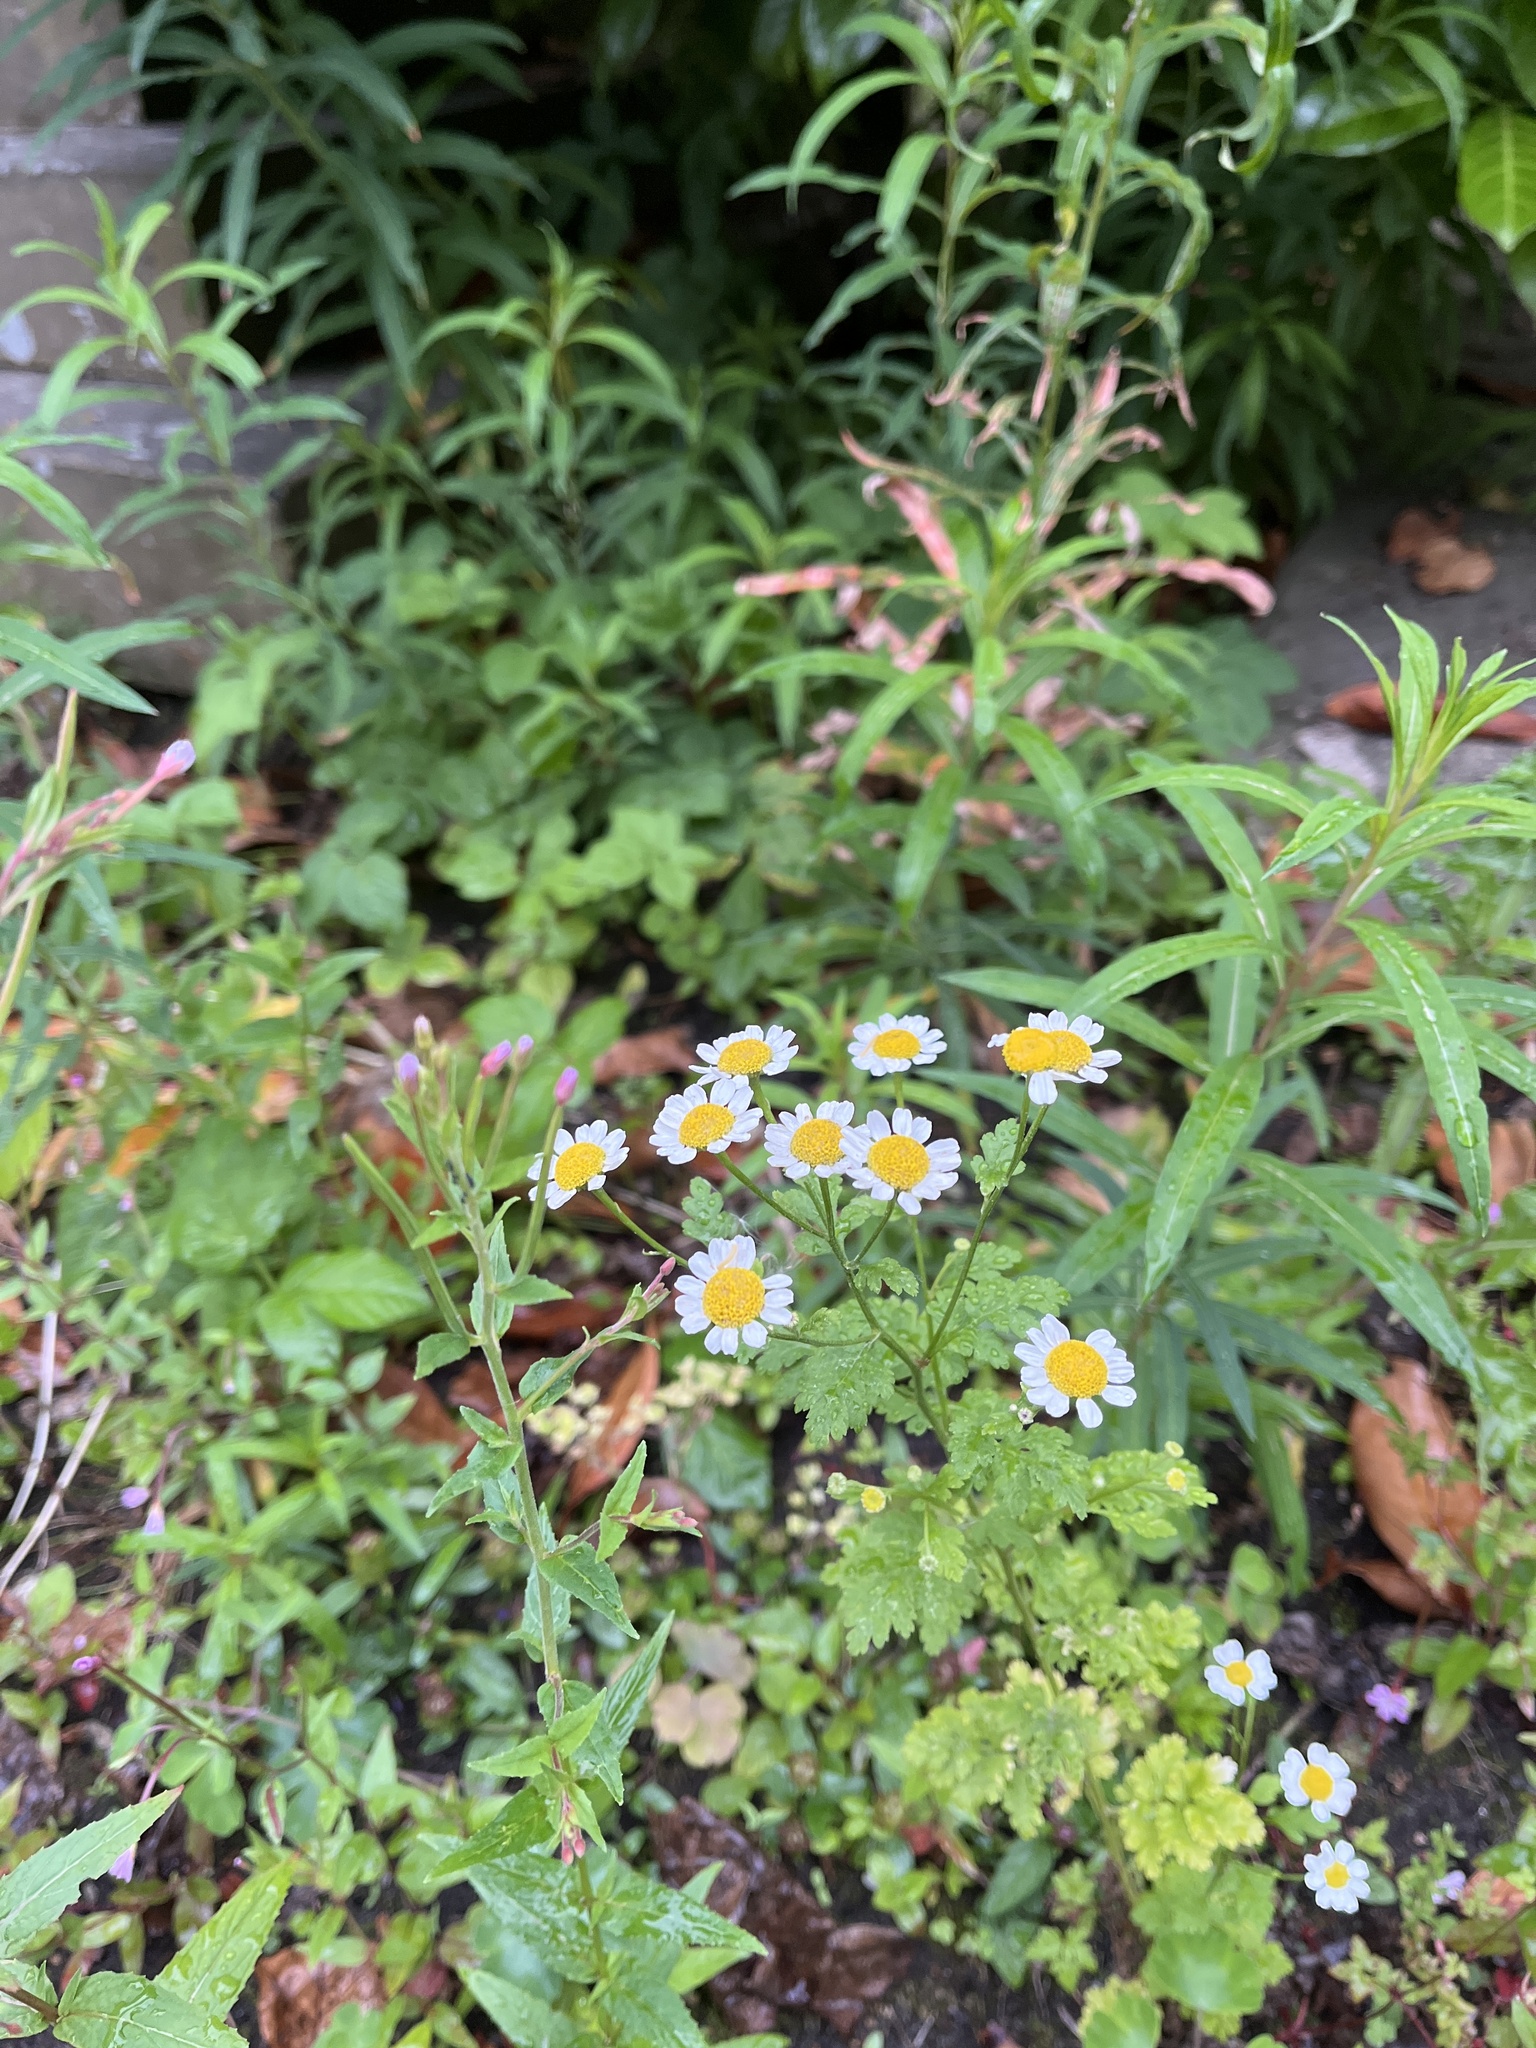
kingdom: Plantae
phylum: Tracheophyta
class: Magnoliopsida
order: Asterales
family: Asteraceae
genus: Tanacetum
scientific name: Tanacetum parthenium
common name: Feverfew
